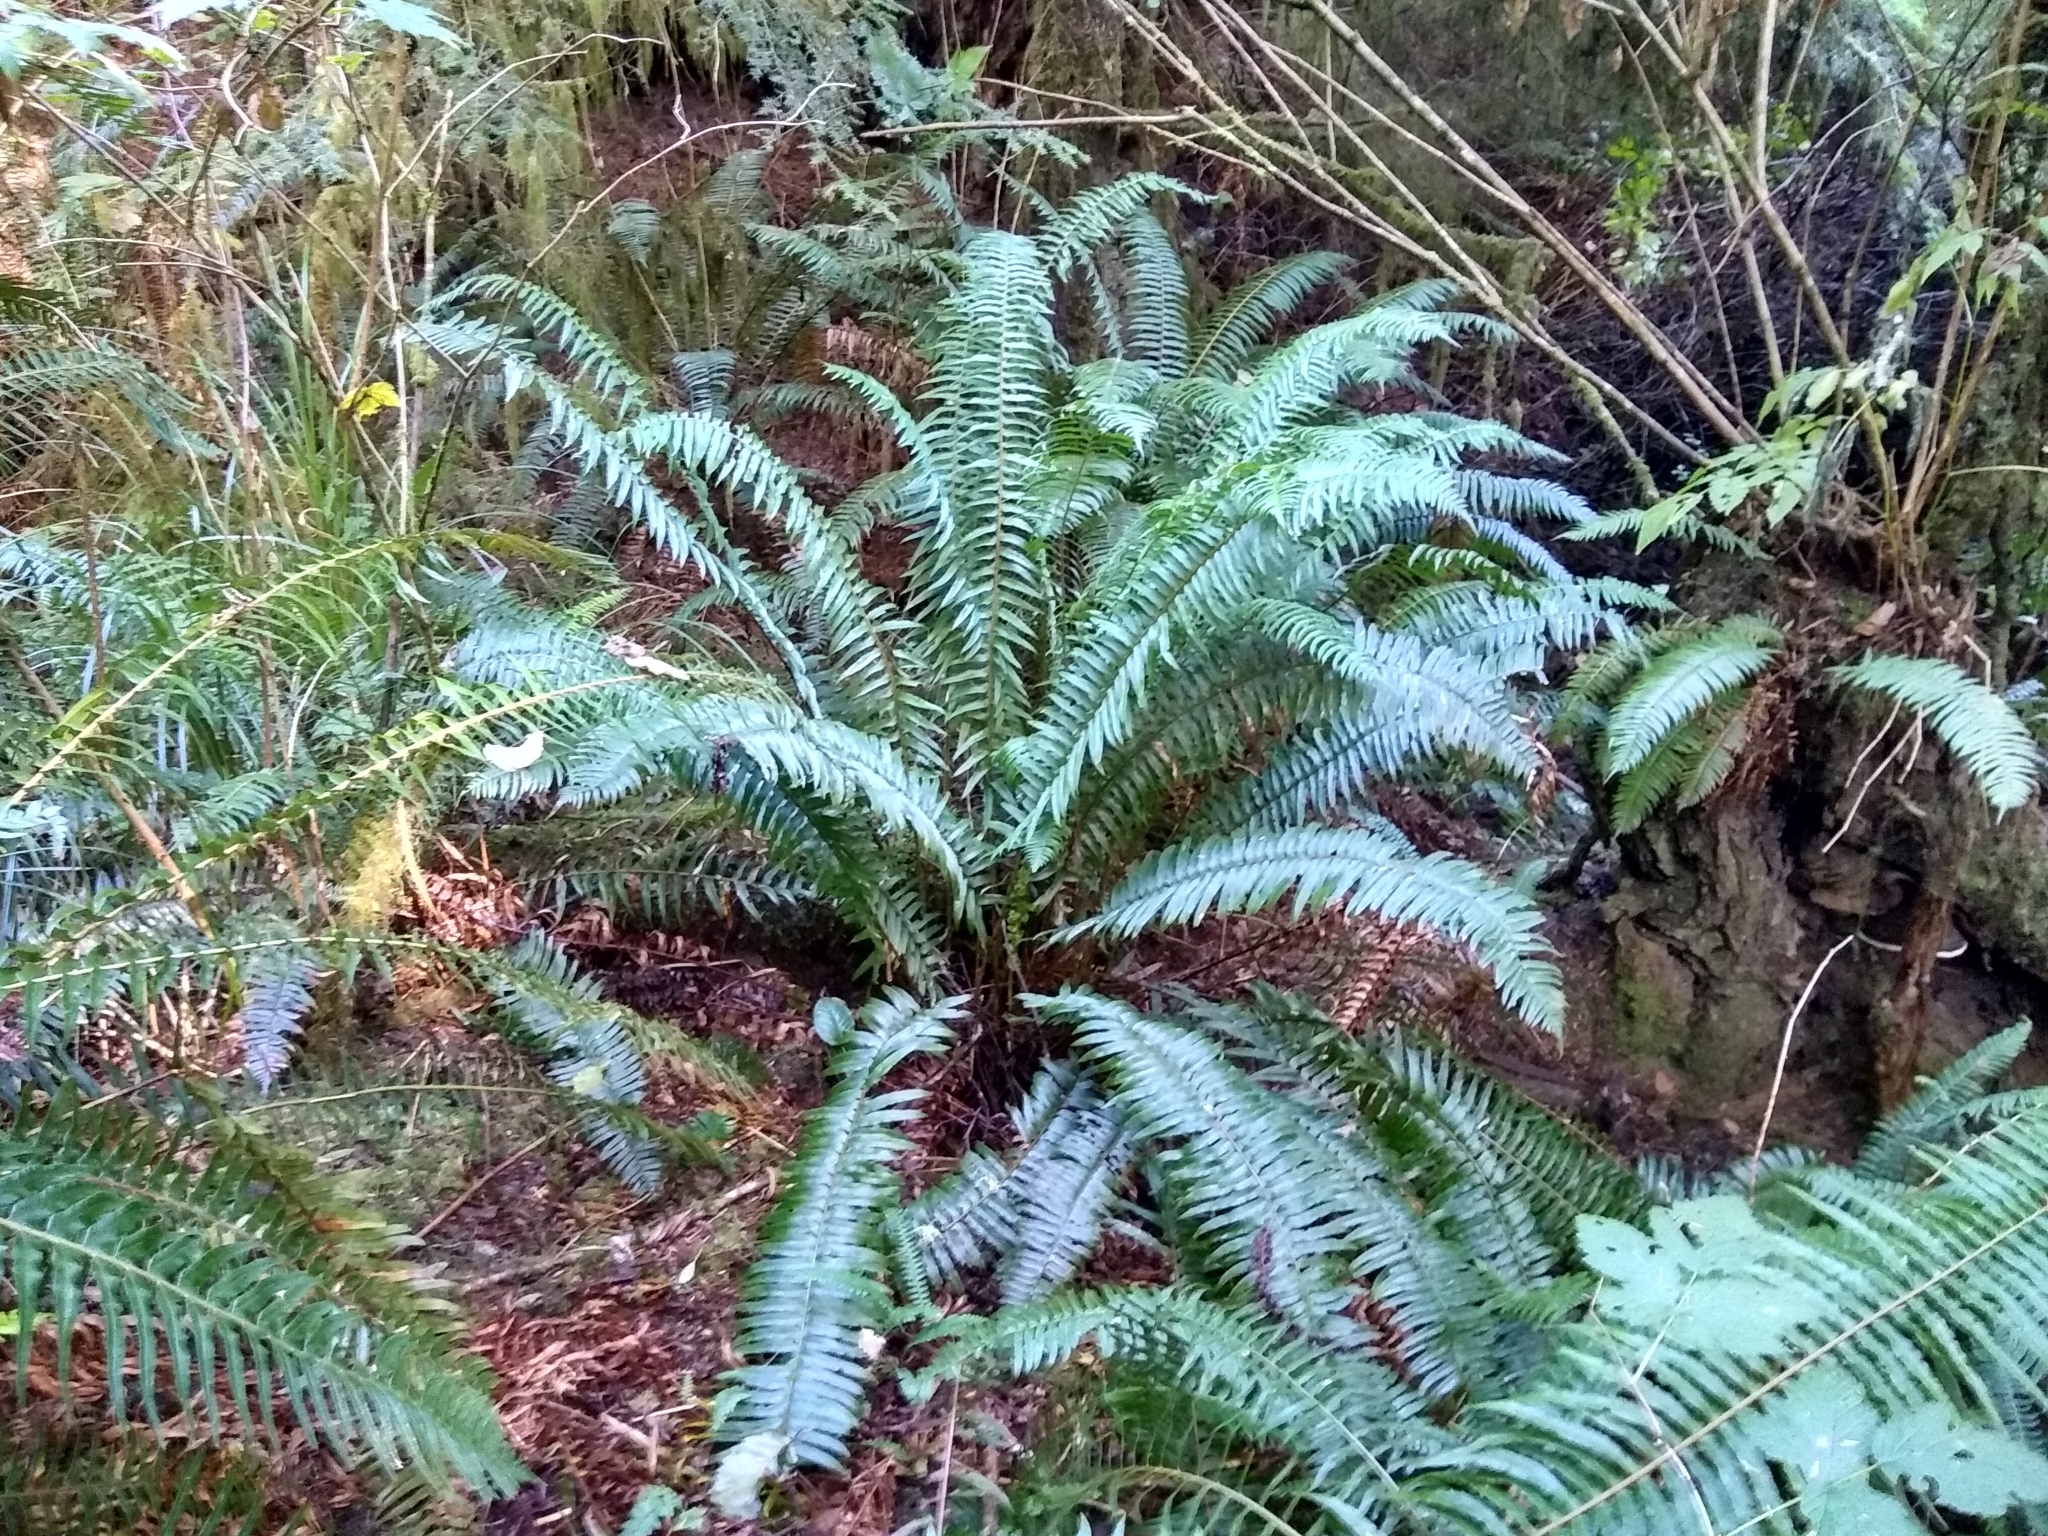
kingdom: Plantae
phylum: Tracheophyta
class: Polypodiopsida
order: Polypodiales
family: Dryopteridaceae
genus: Polystichum
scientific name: Polystichum munitum
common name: Western sword-fern
